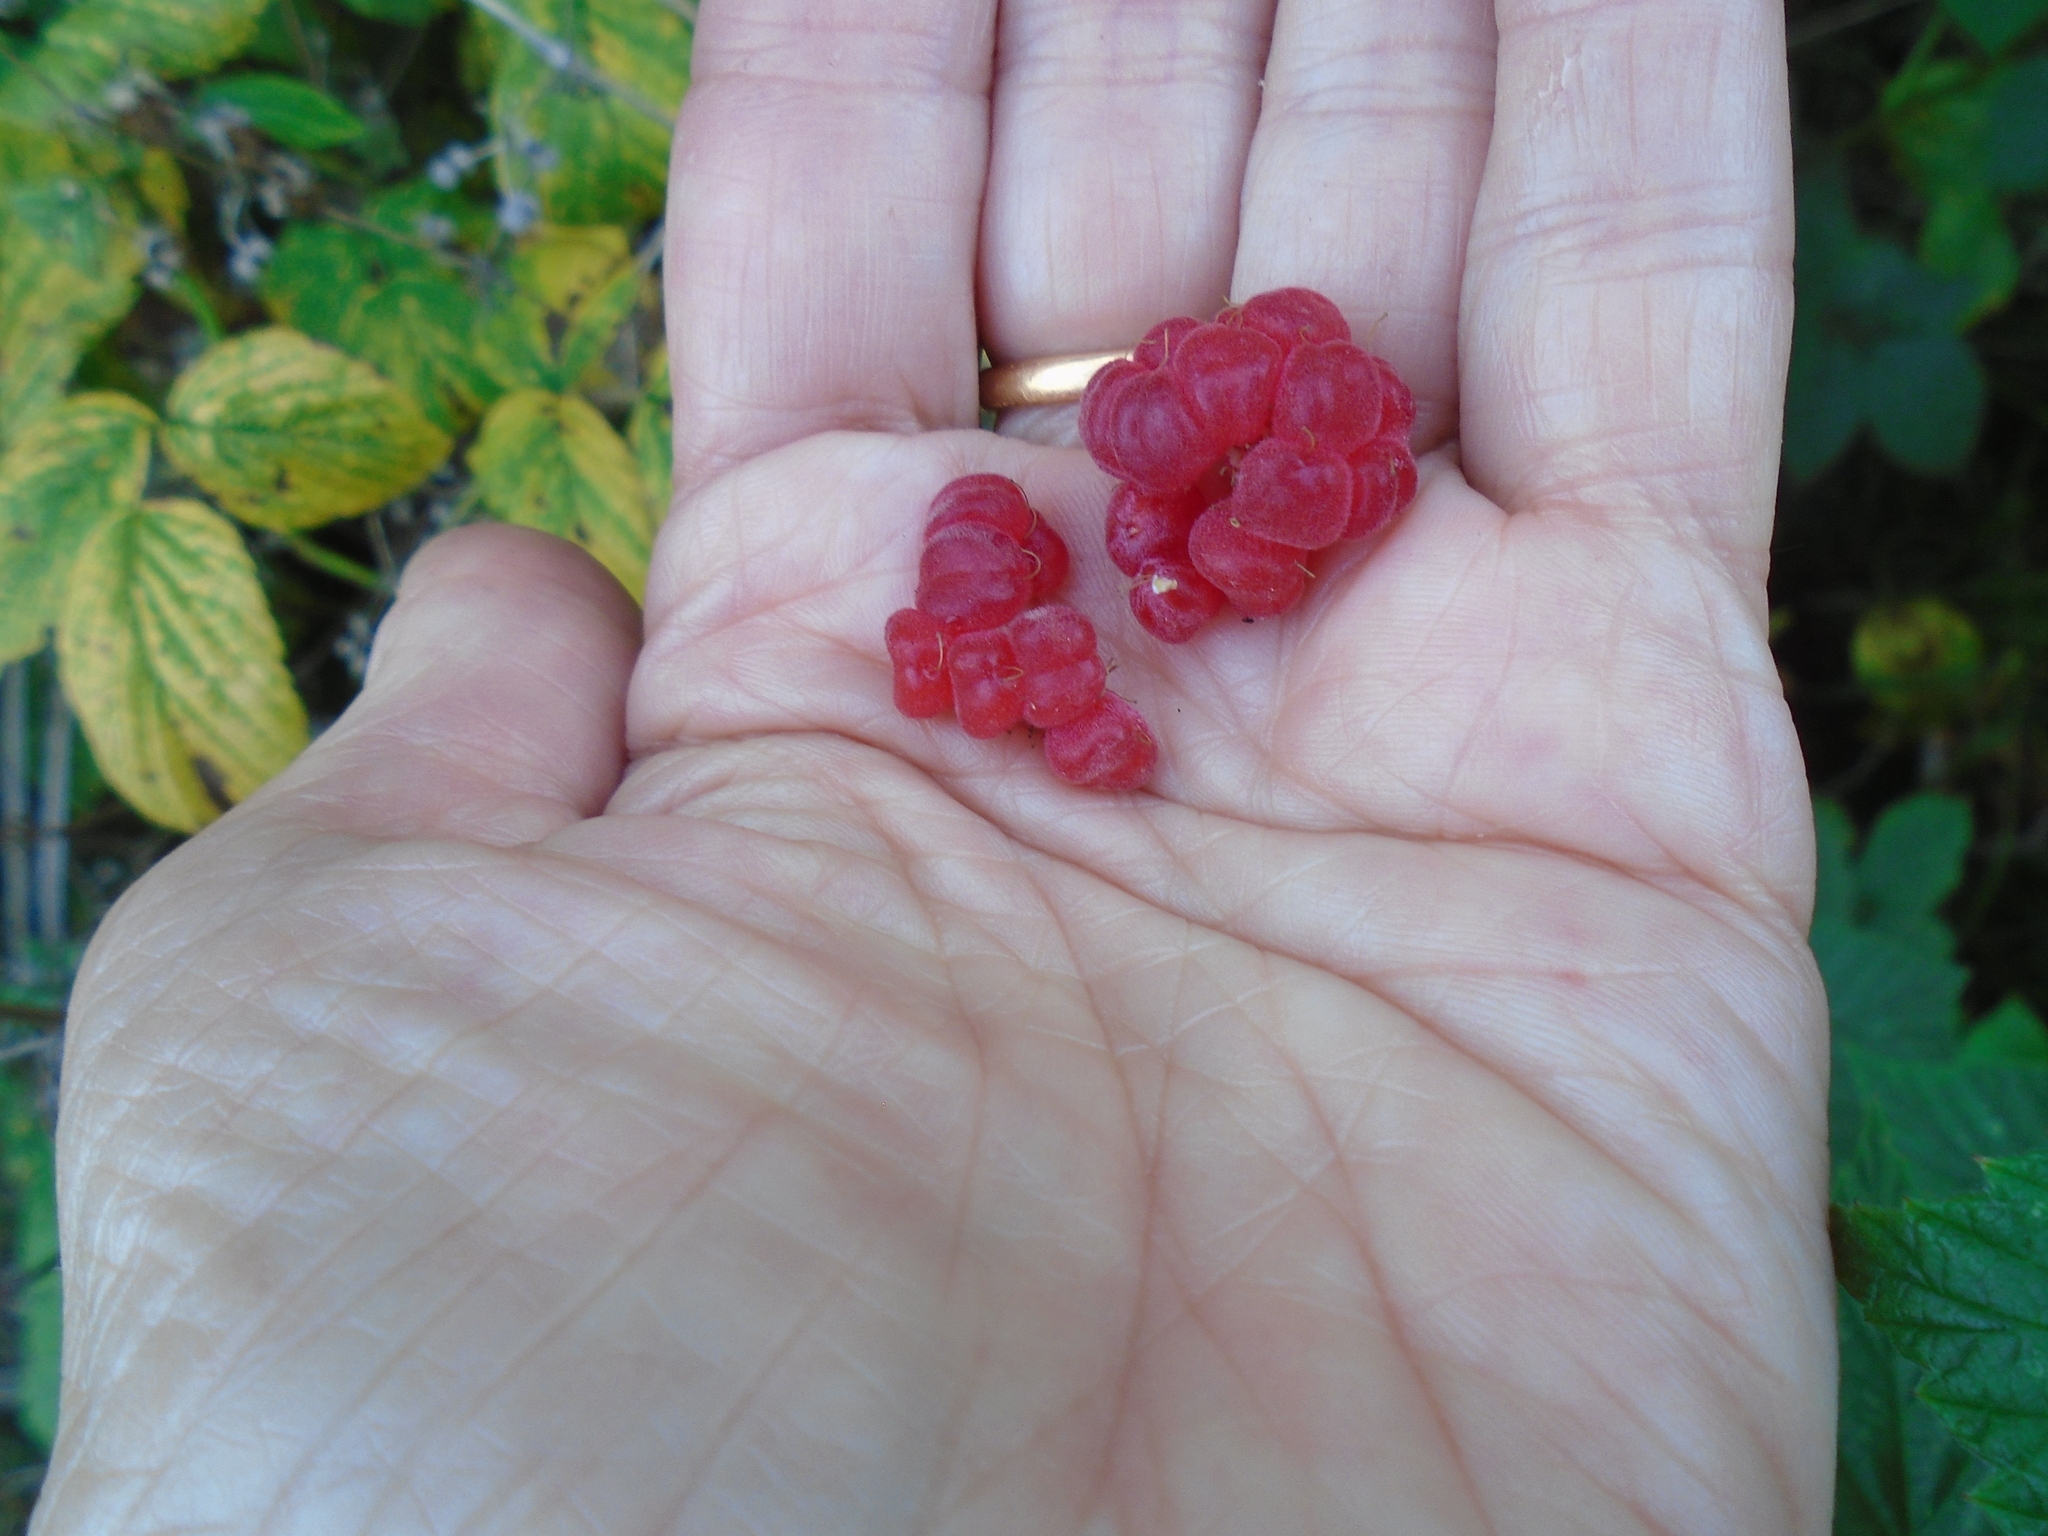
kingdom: Plantae
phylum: Tracheophyta
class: Magnoliopsida
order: Rosales
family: Rosaceae
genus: Rubus
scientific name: Rubus idaeus
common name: Raspberry
